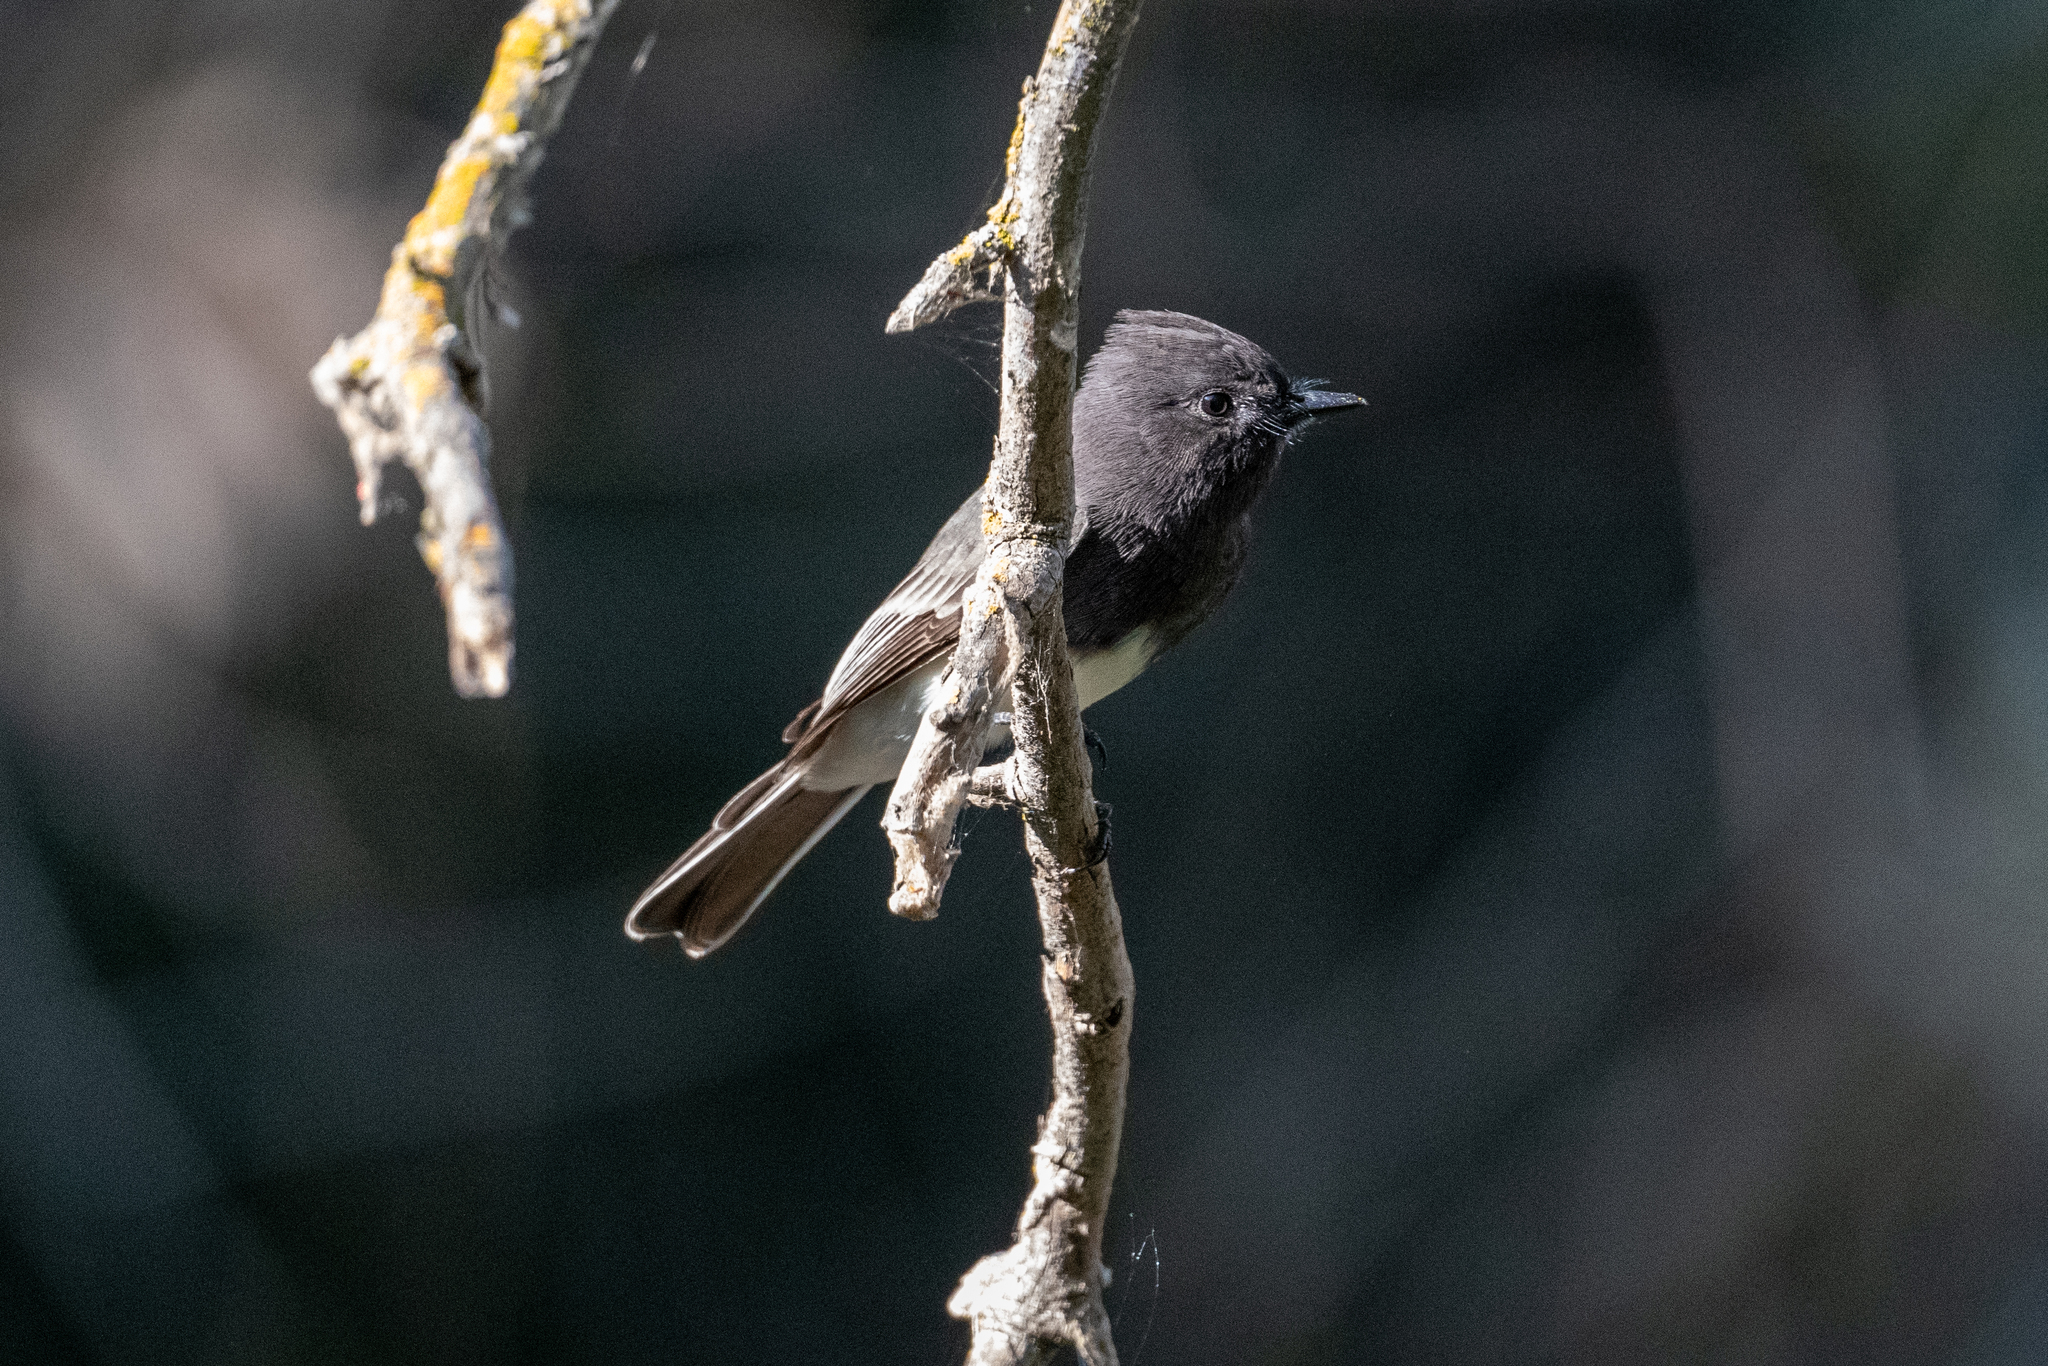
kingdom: Animalia
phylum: Chordata
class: Aves
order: Passeriformes
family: Tyrannidae
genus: Sayornis
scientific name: Sayornis nigricans
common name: Black phoebe
